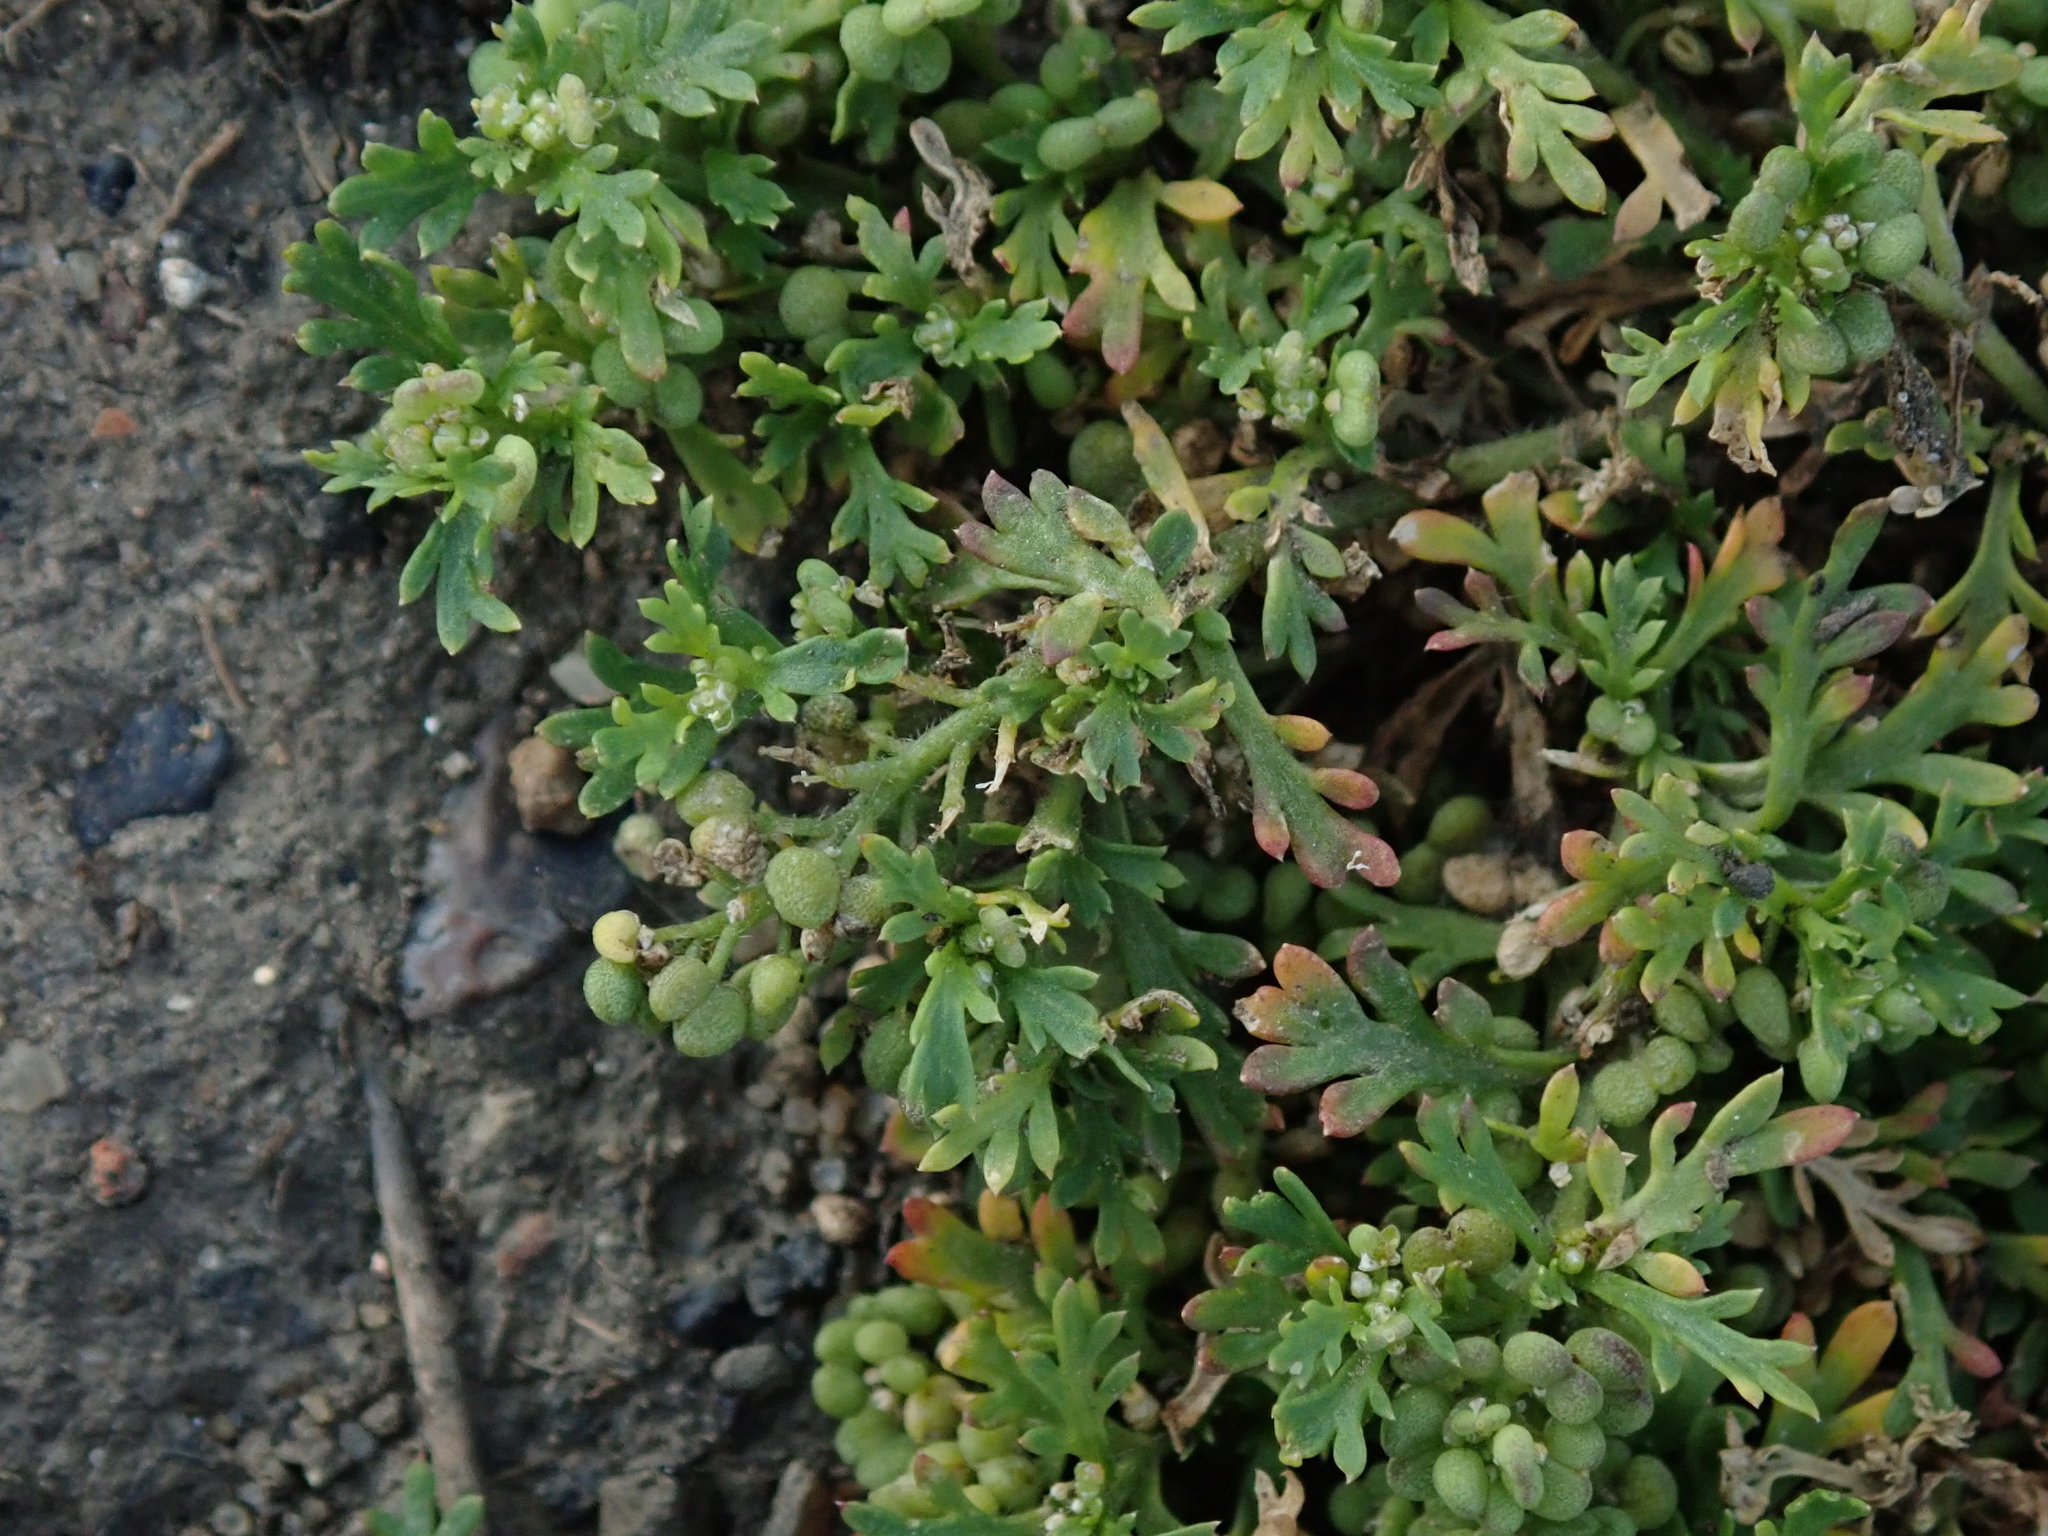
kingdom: Plantae
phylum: Tracheophyta
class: Magnoliopsida
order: Brassicales
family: Brassicaceae
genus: Lepidium
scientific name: Lepidium didymum
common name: Lesser swinecress
